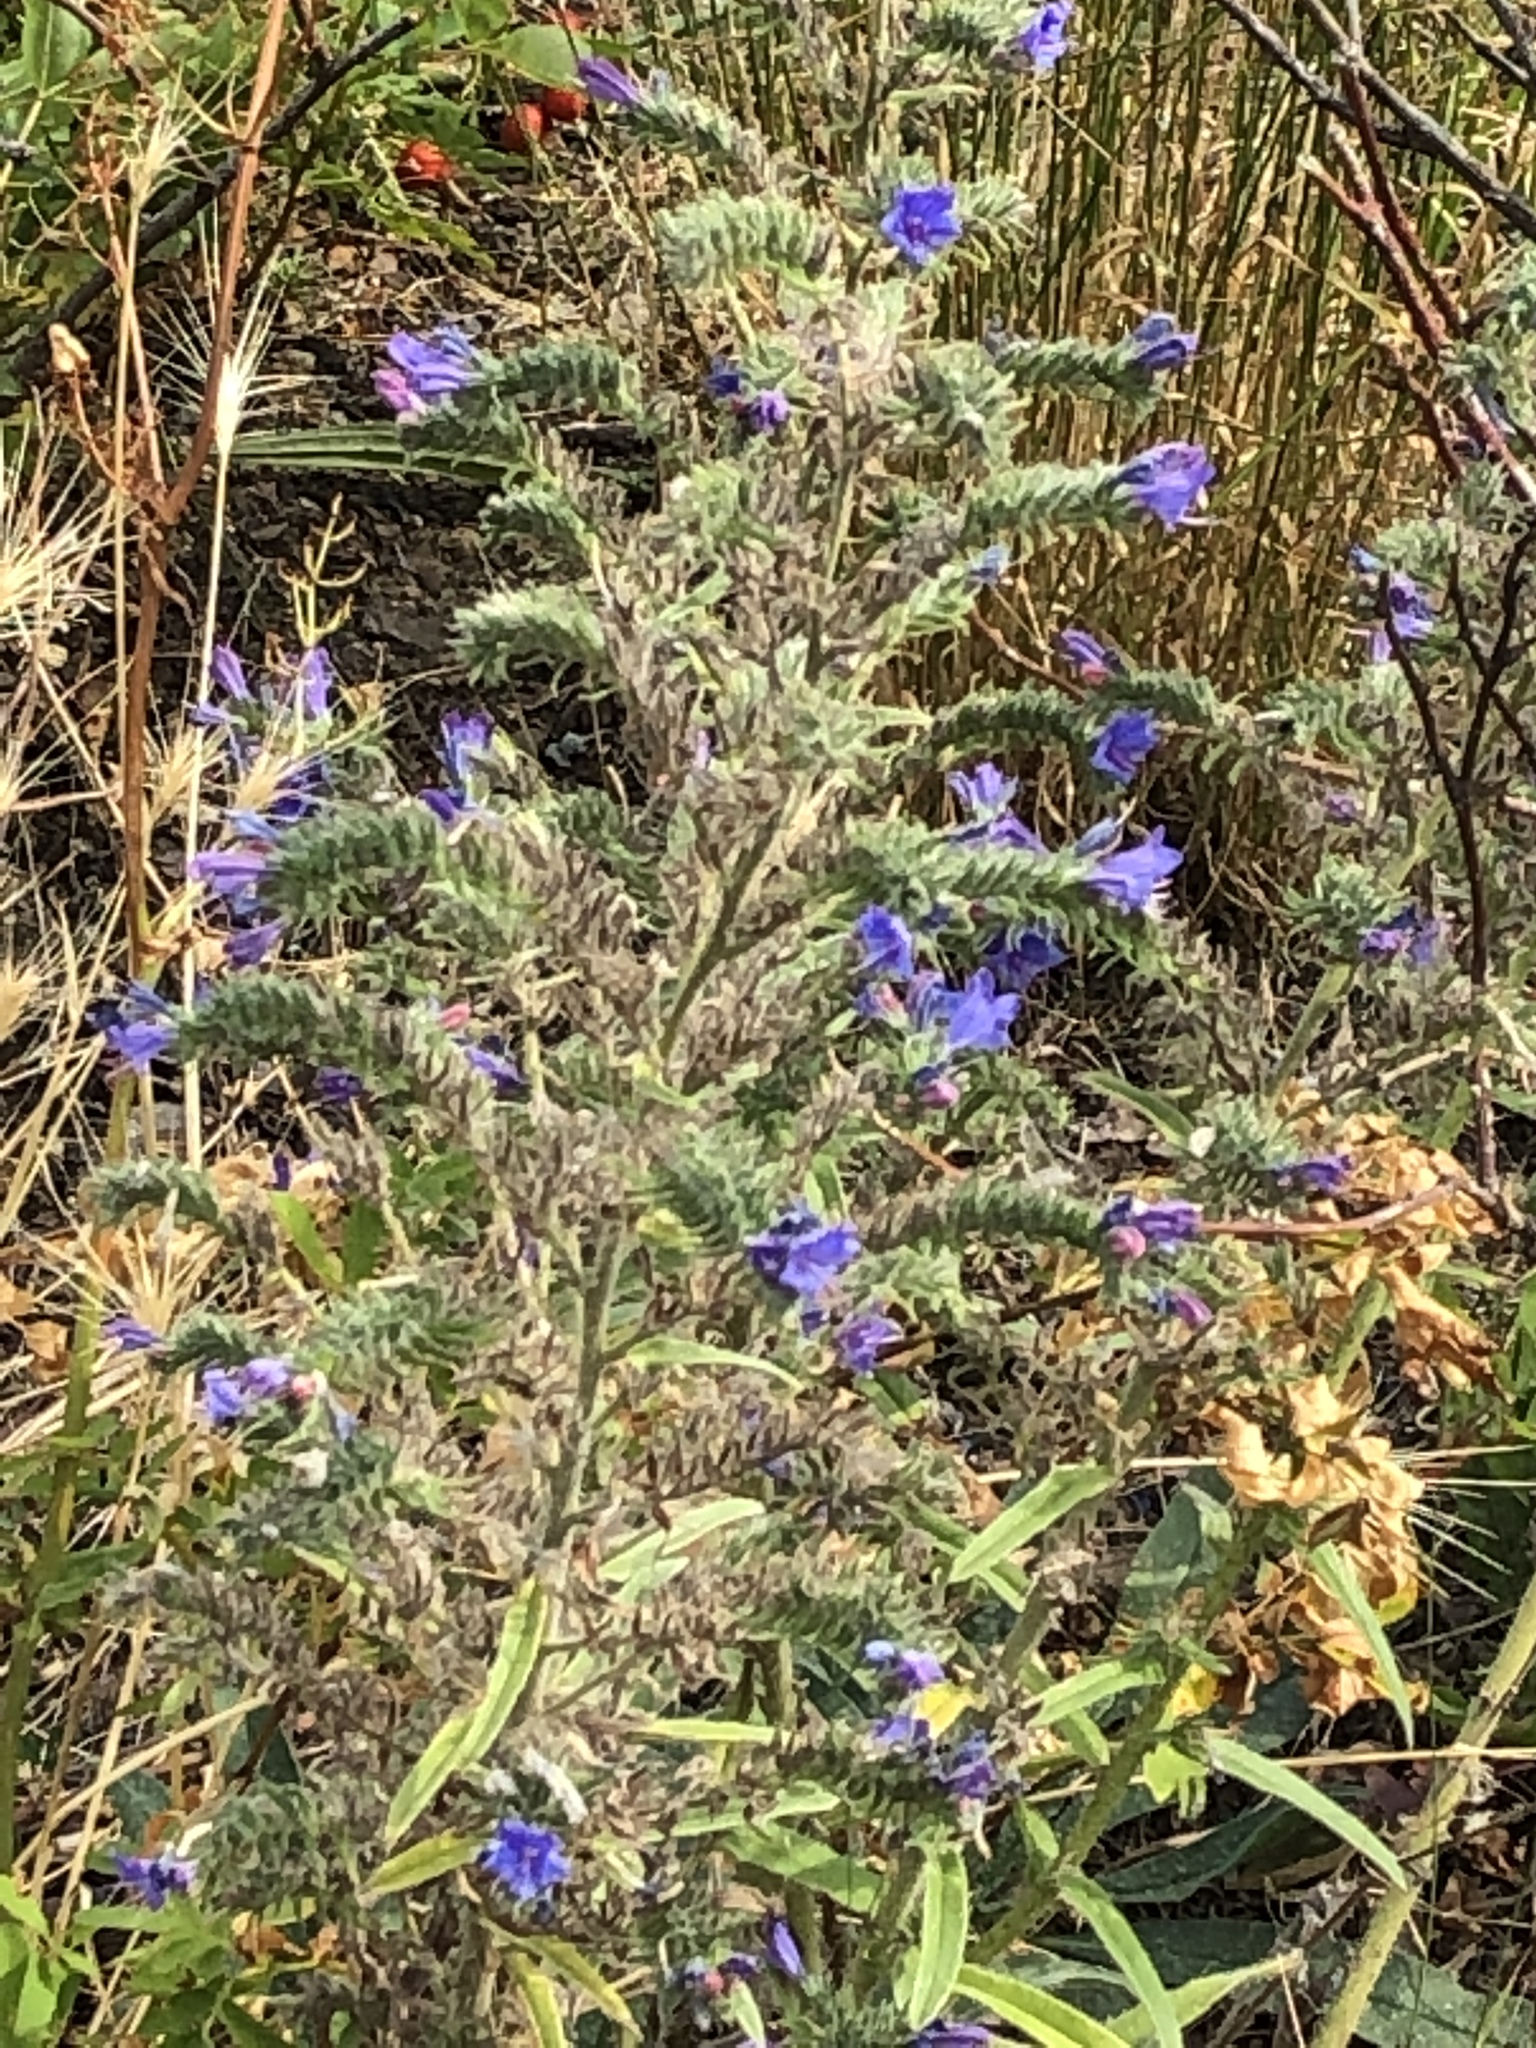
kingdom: Plantae
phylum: Tracheophyta
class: Magnoliopsida
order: Boraginales
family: Boraginaceae
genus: Echium
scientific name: Echium vulgare
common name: Common viper's bugloss
